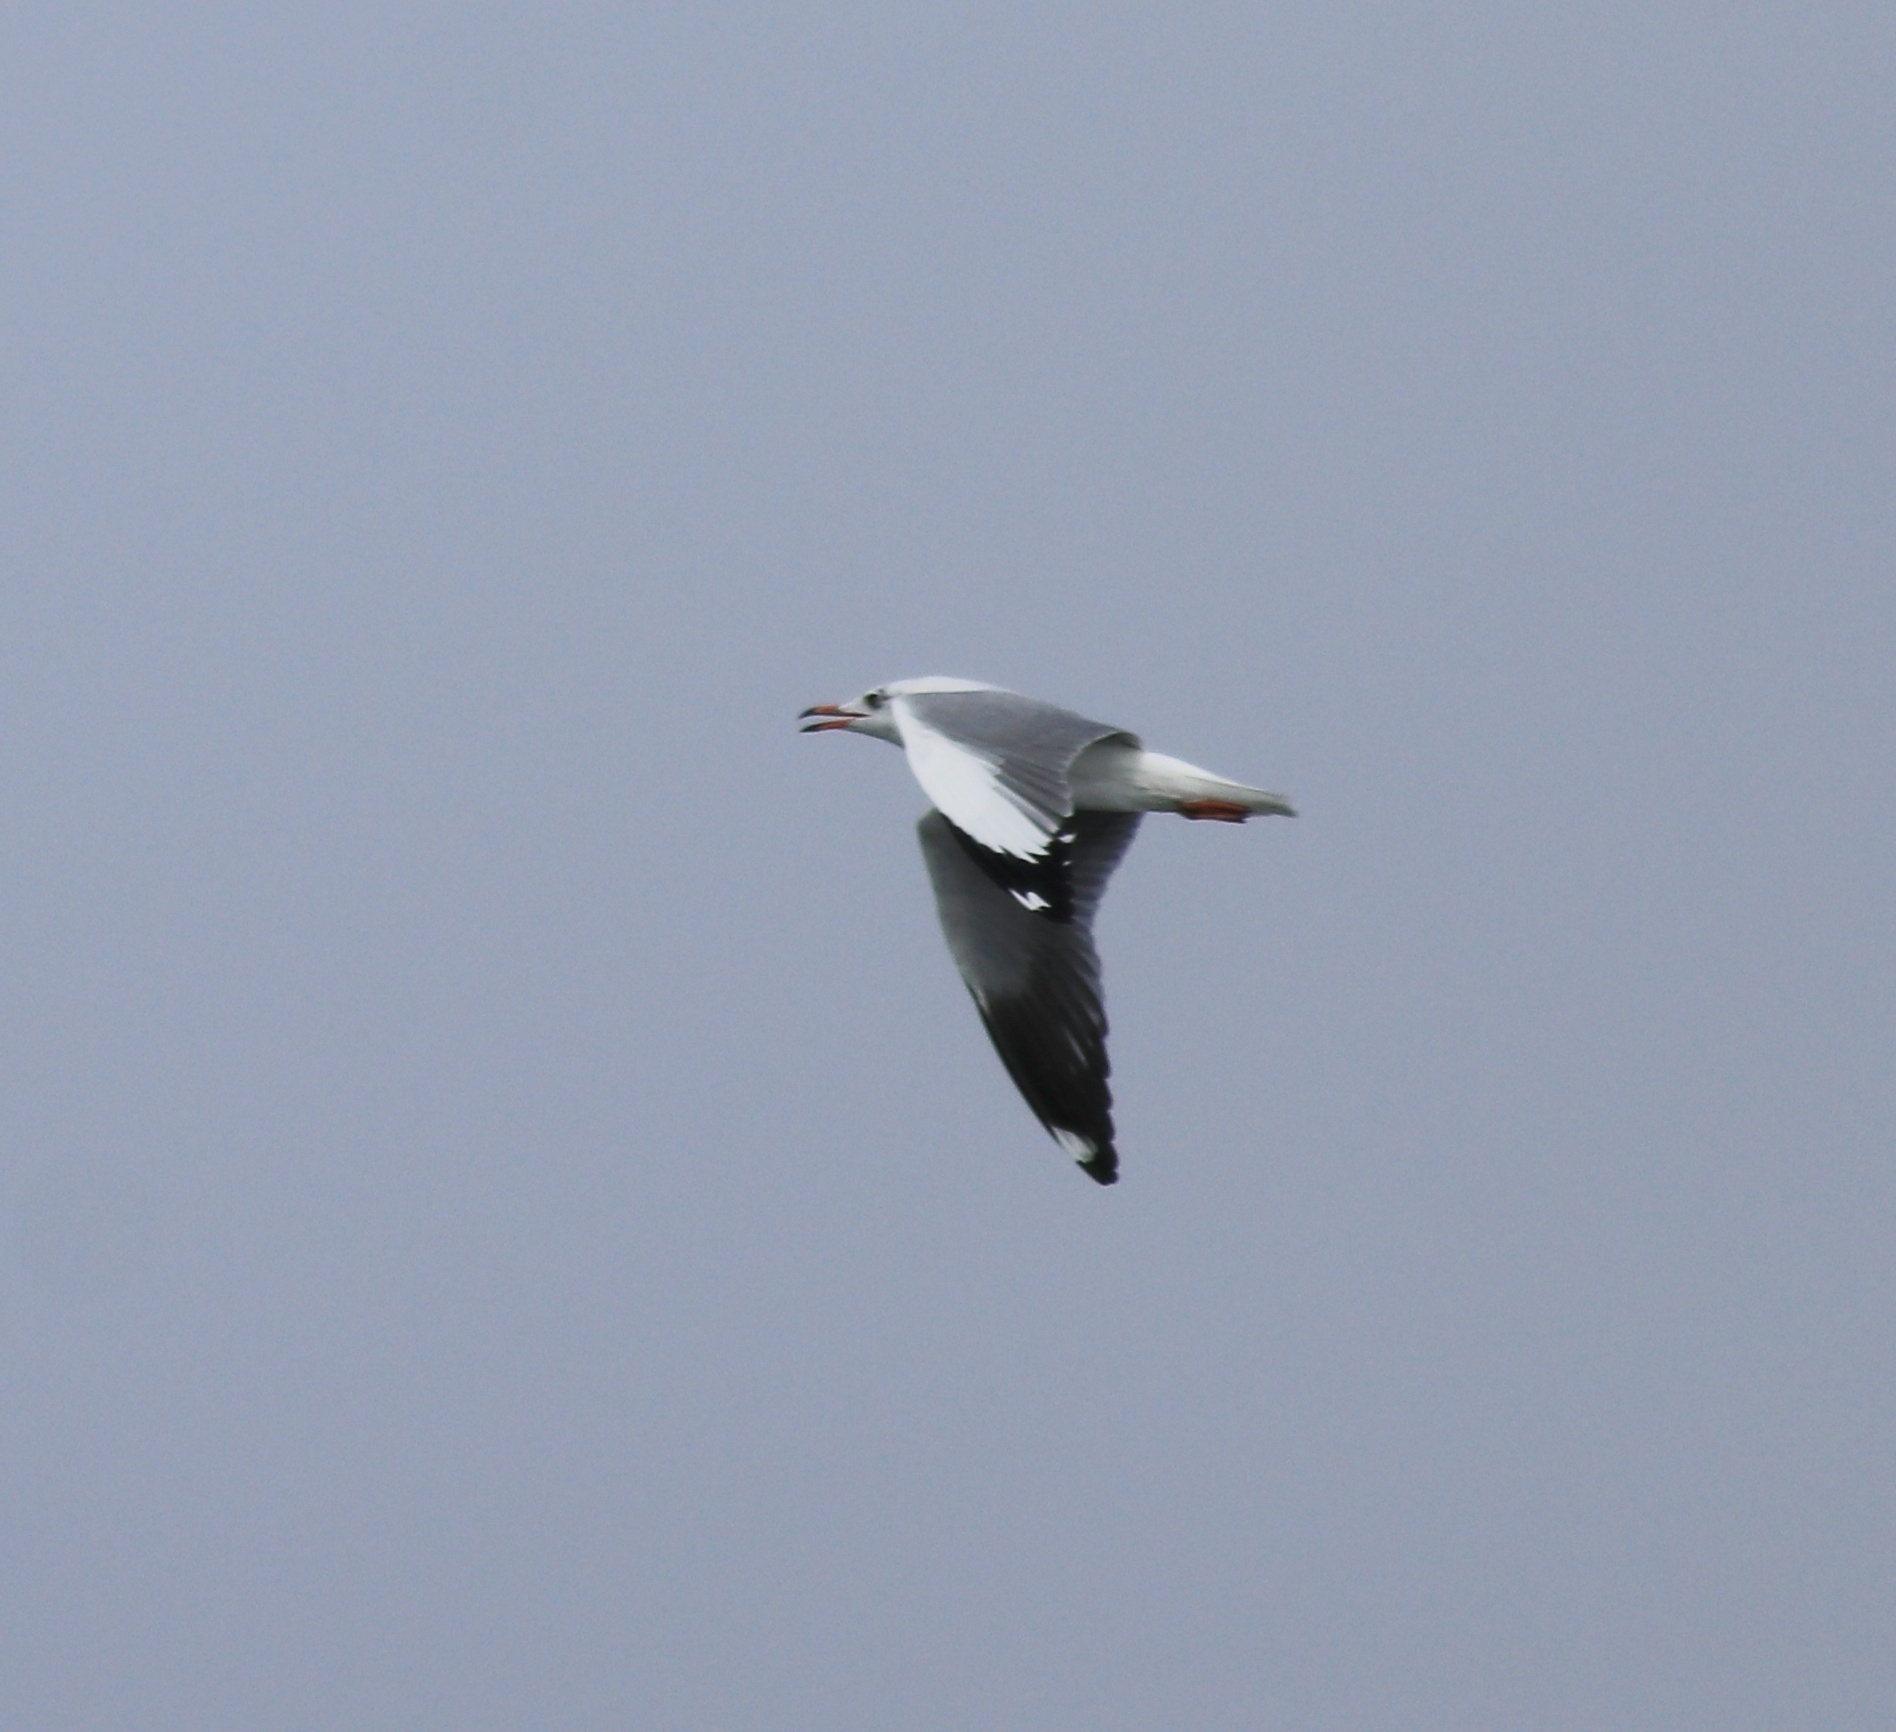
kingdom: Animalia
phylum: Chordata
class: Aves
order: Charadriiformes
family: Laridae
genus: Chroicocephalus
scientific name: Chroicocephalus brunnicephalus
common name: Brown-headed gull
